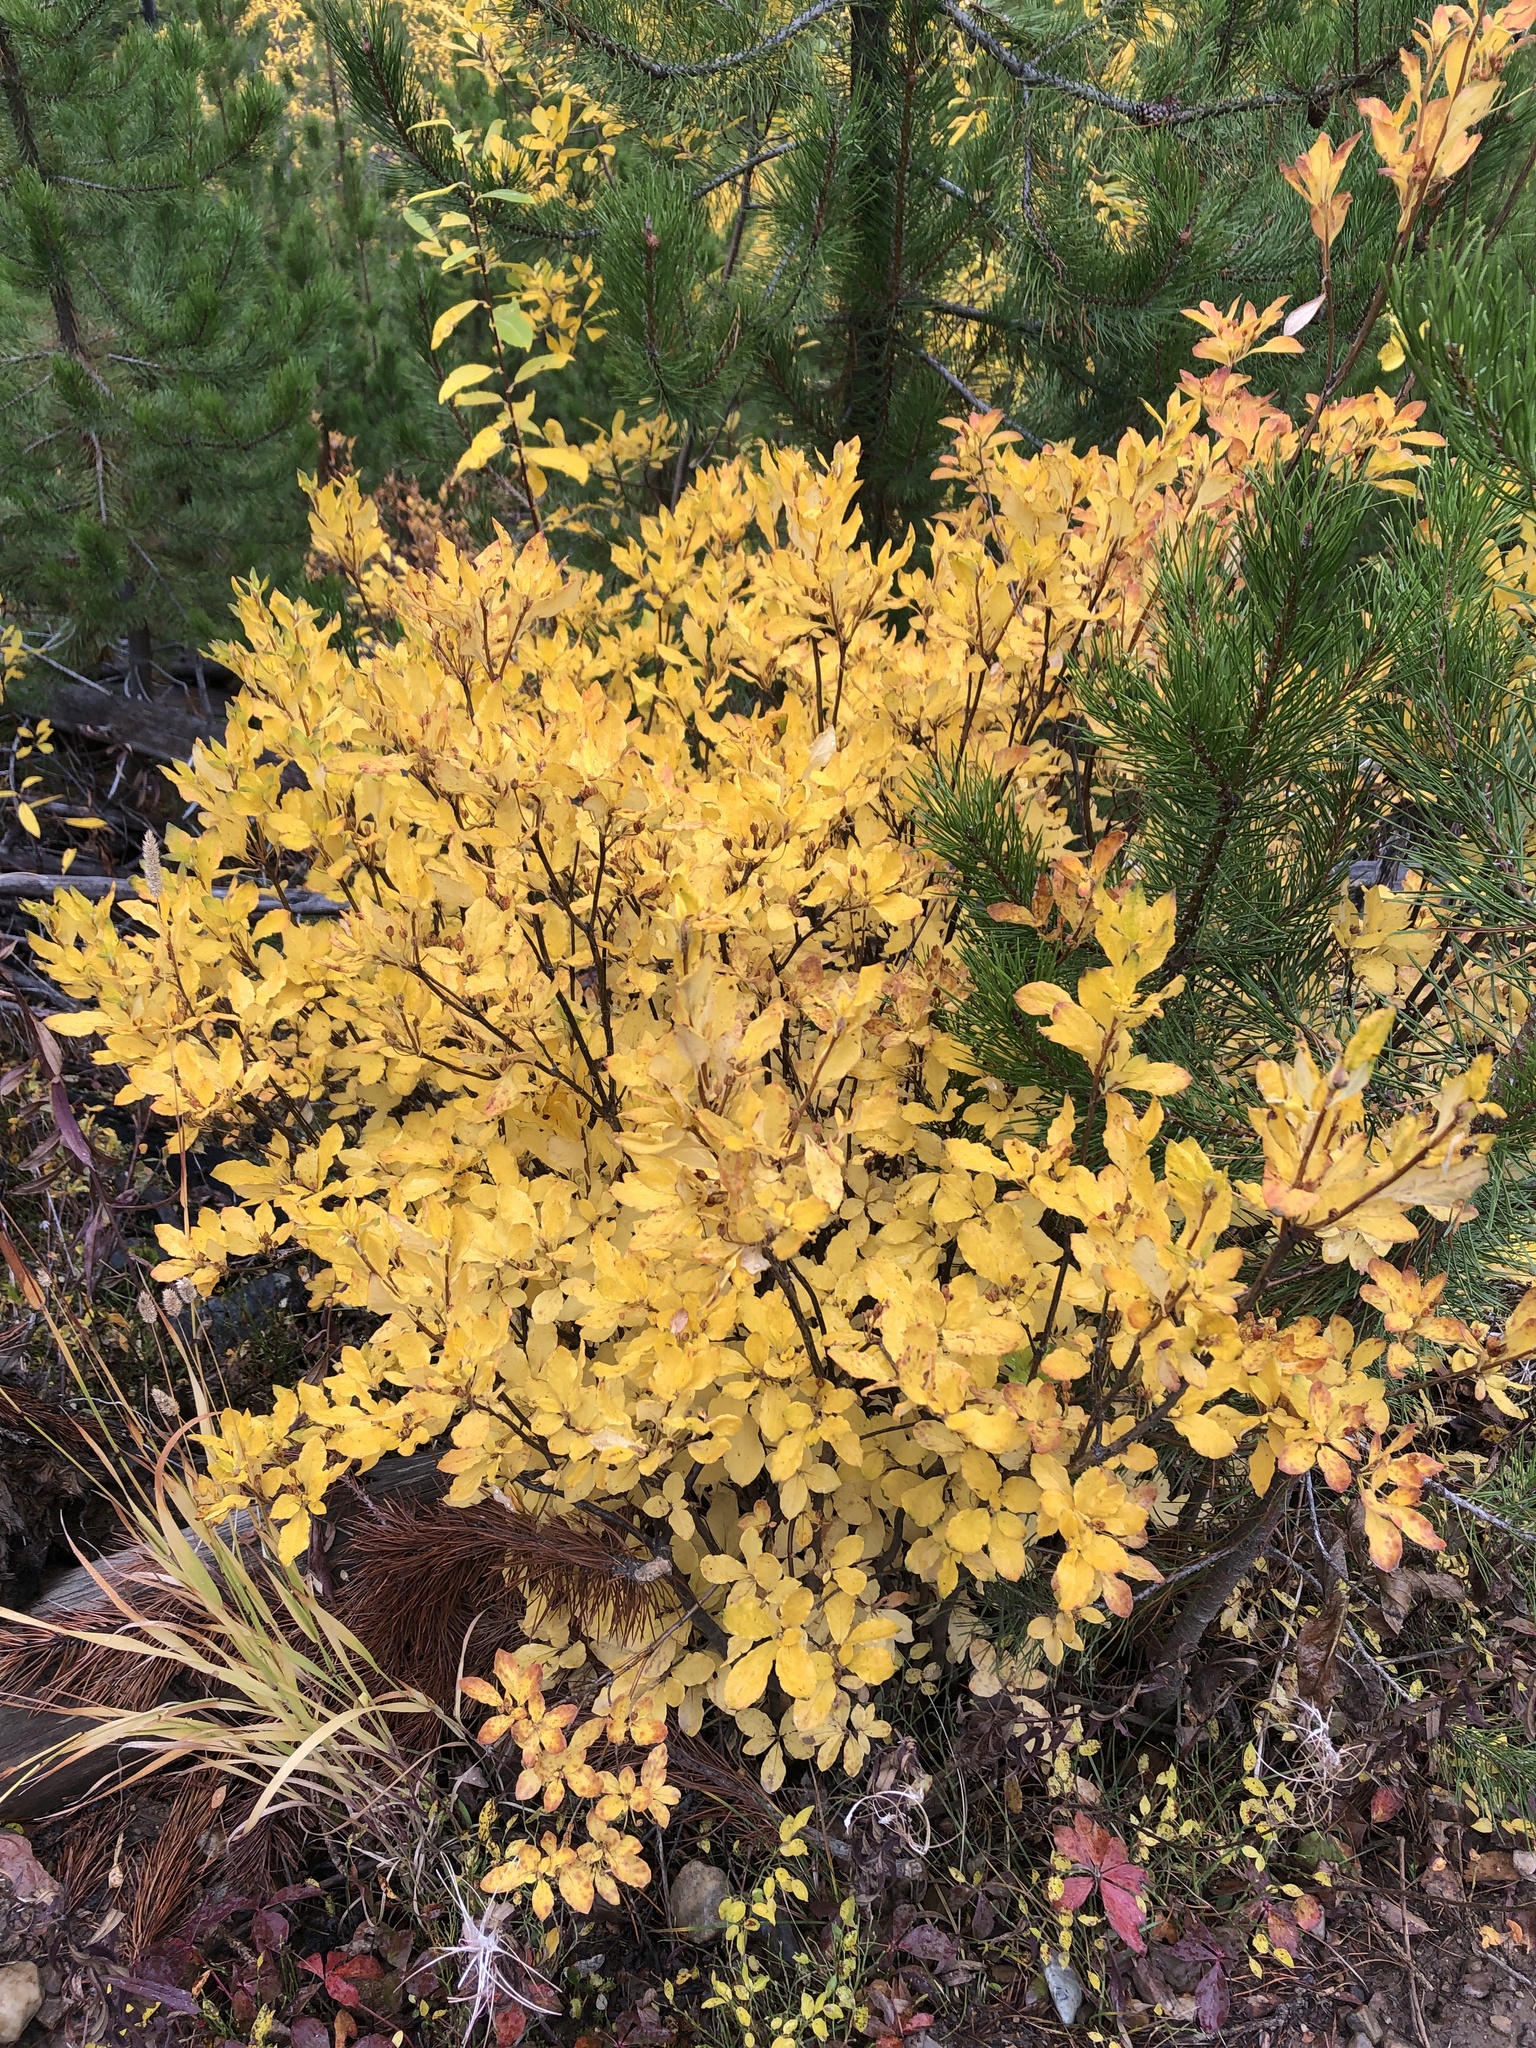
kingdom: Plantae
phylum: Tracheophyta
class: Magnoliopsida
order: Ericales
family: Ericaceae
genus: Rhododendron
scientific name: Rhododendron menziesii
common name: Pacific menziesia
